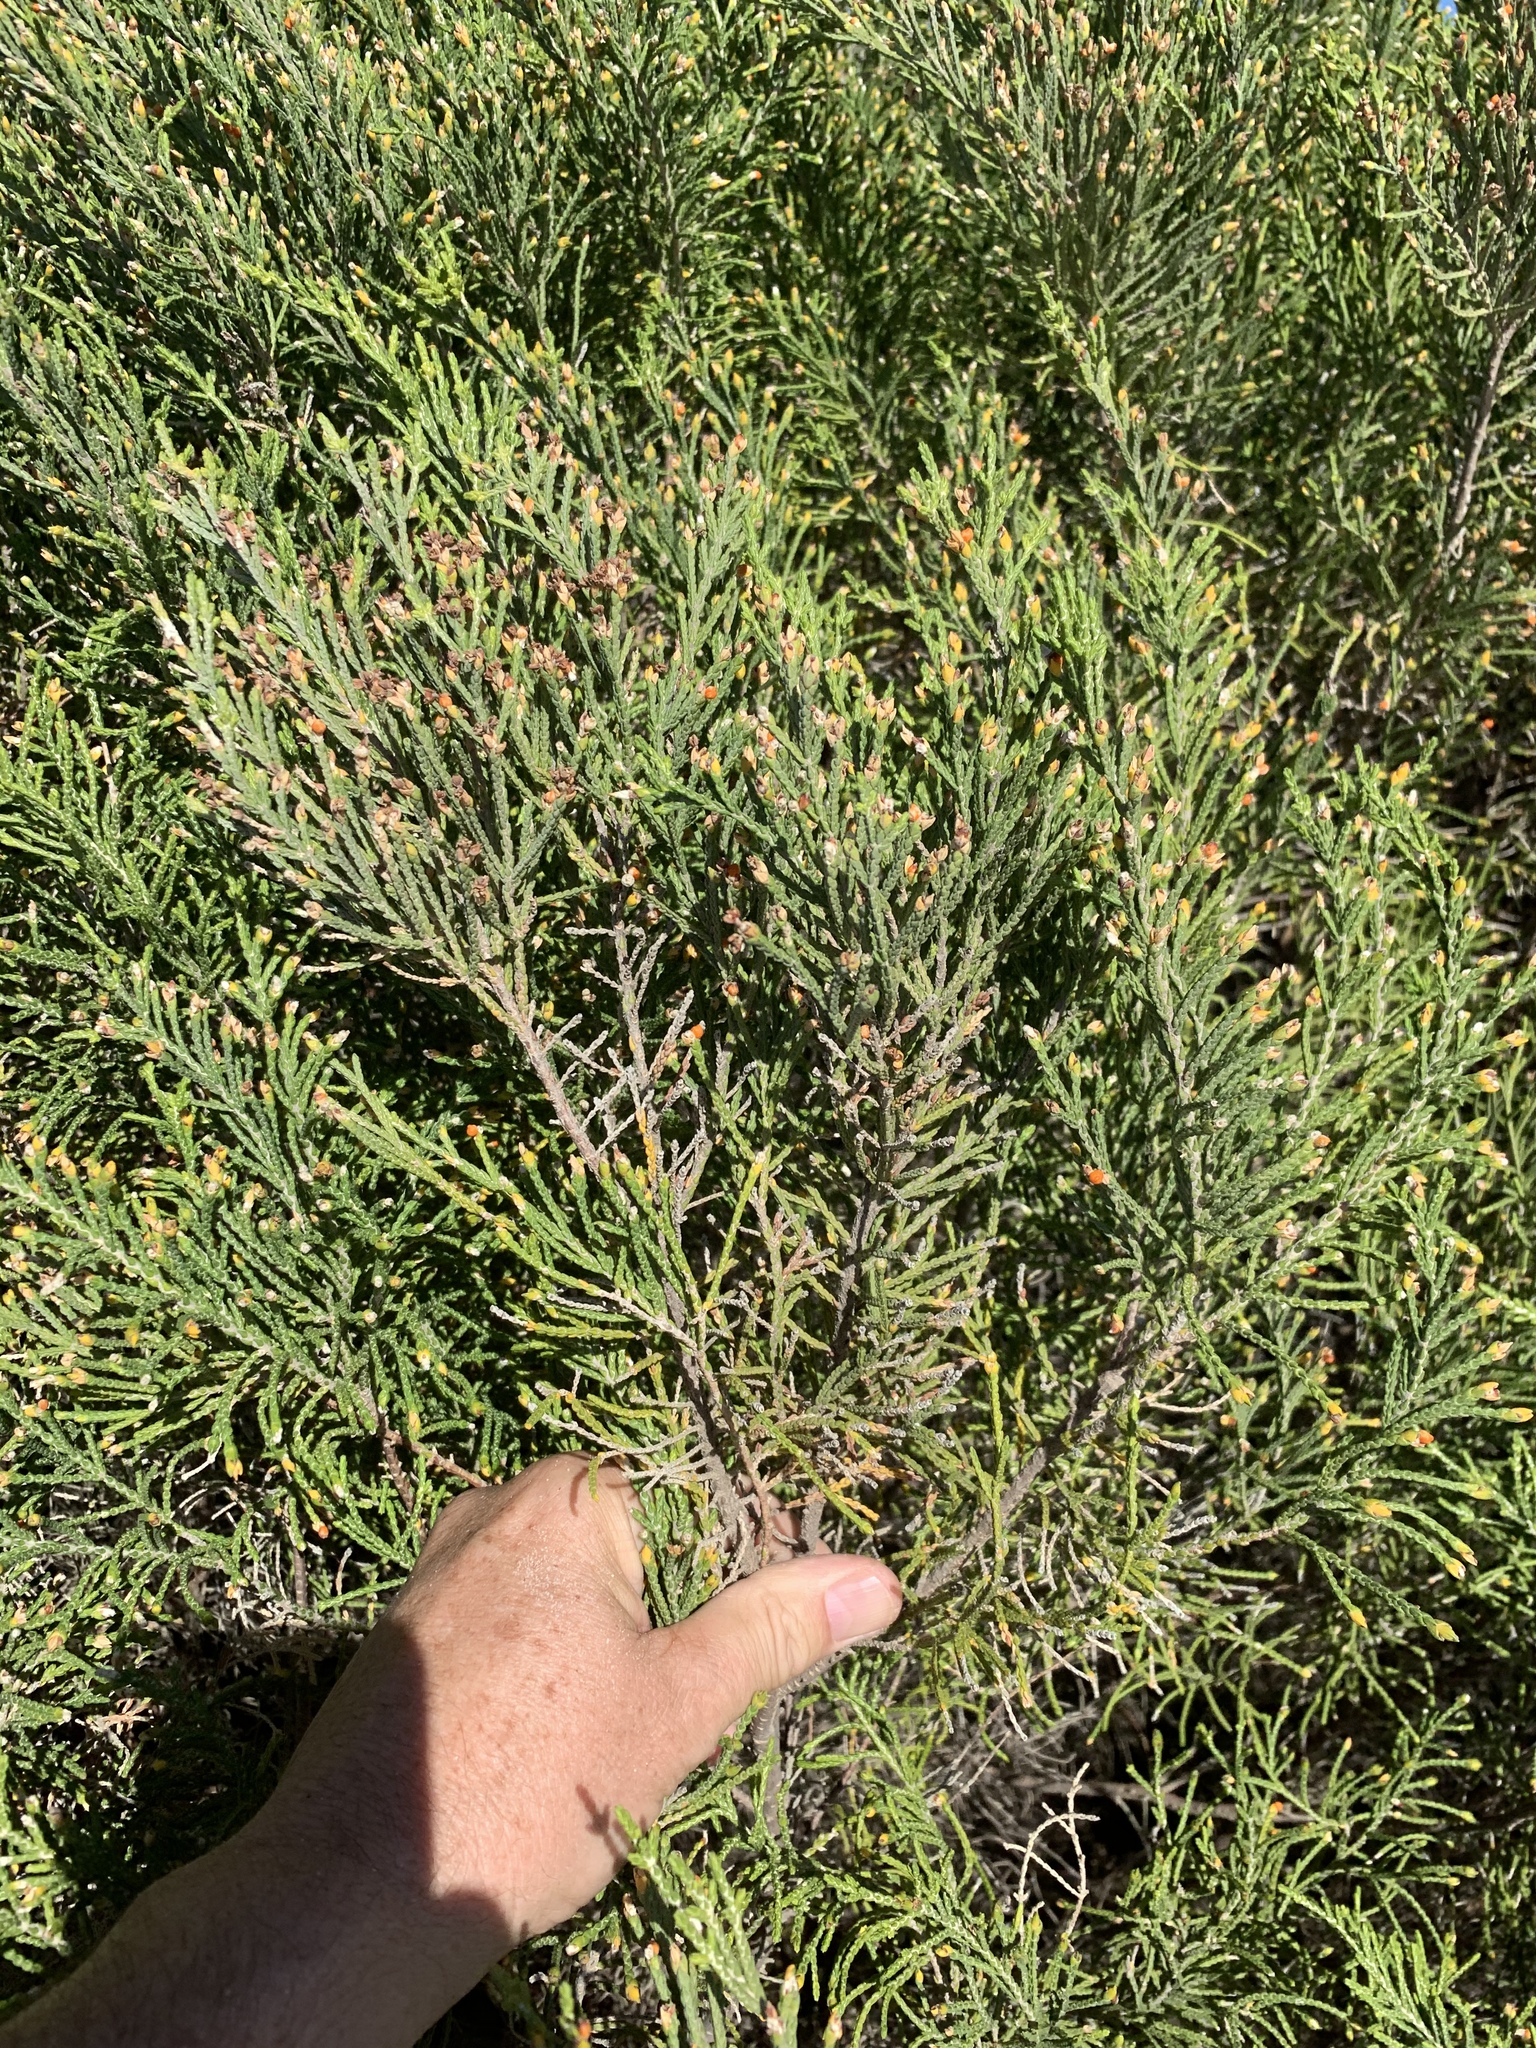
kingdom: Plantae
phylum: Tracheophyta
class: Magnoliopsida
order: Malvales
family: Thymelaeaceae
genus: Passerina
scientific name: Passerina ericoides
